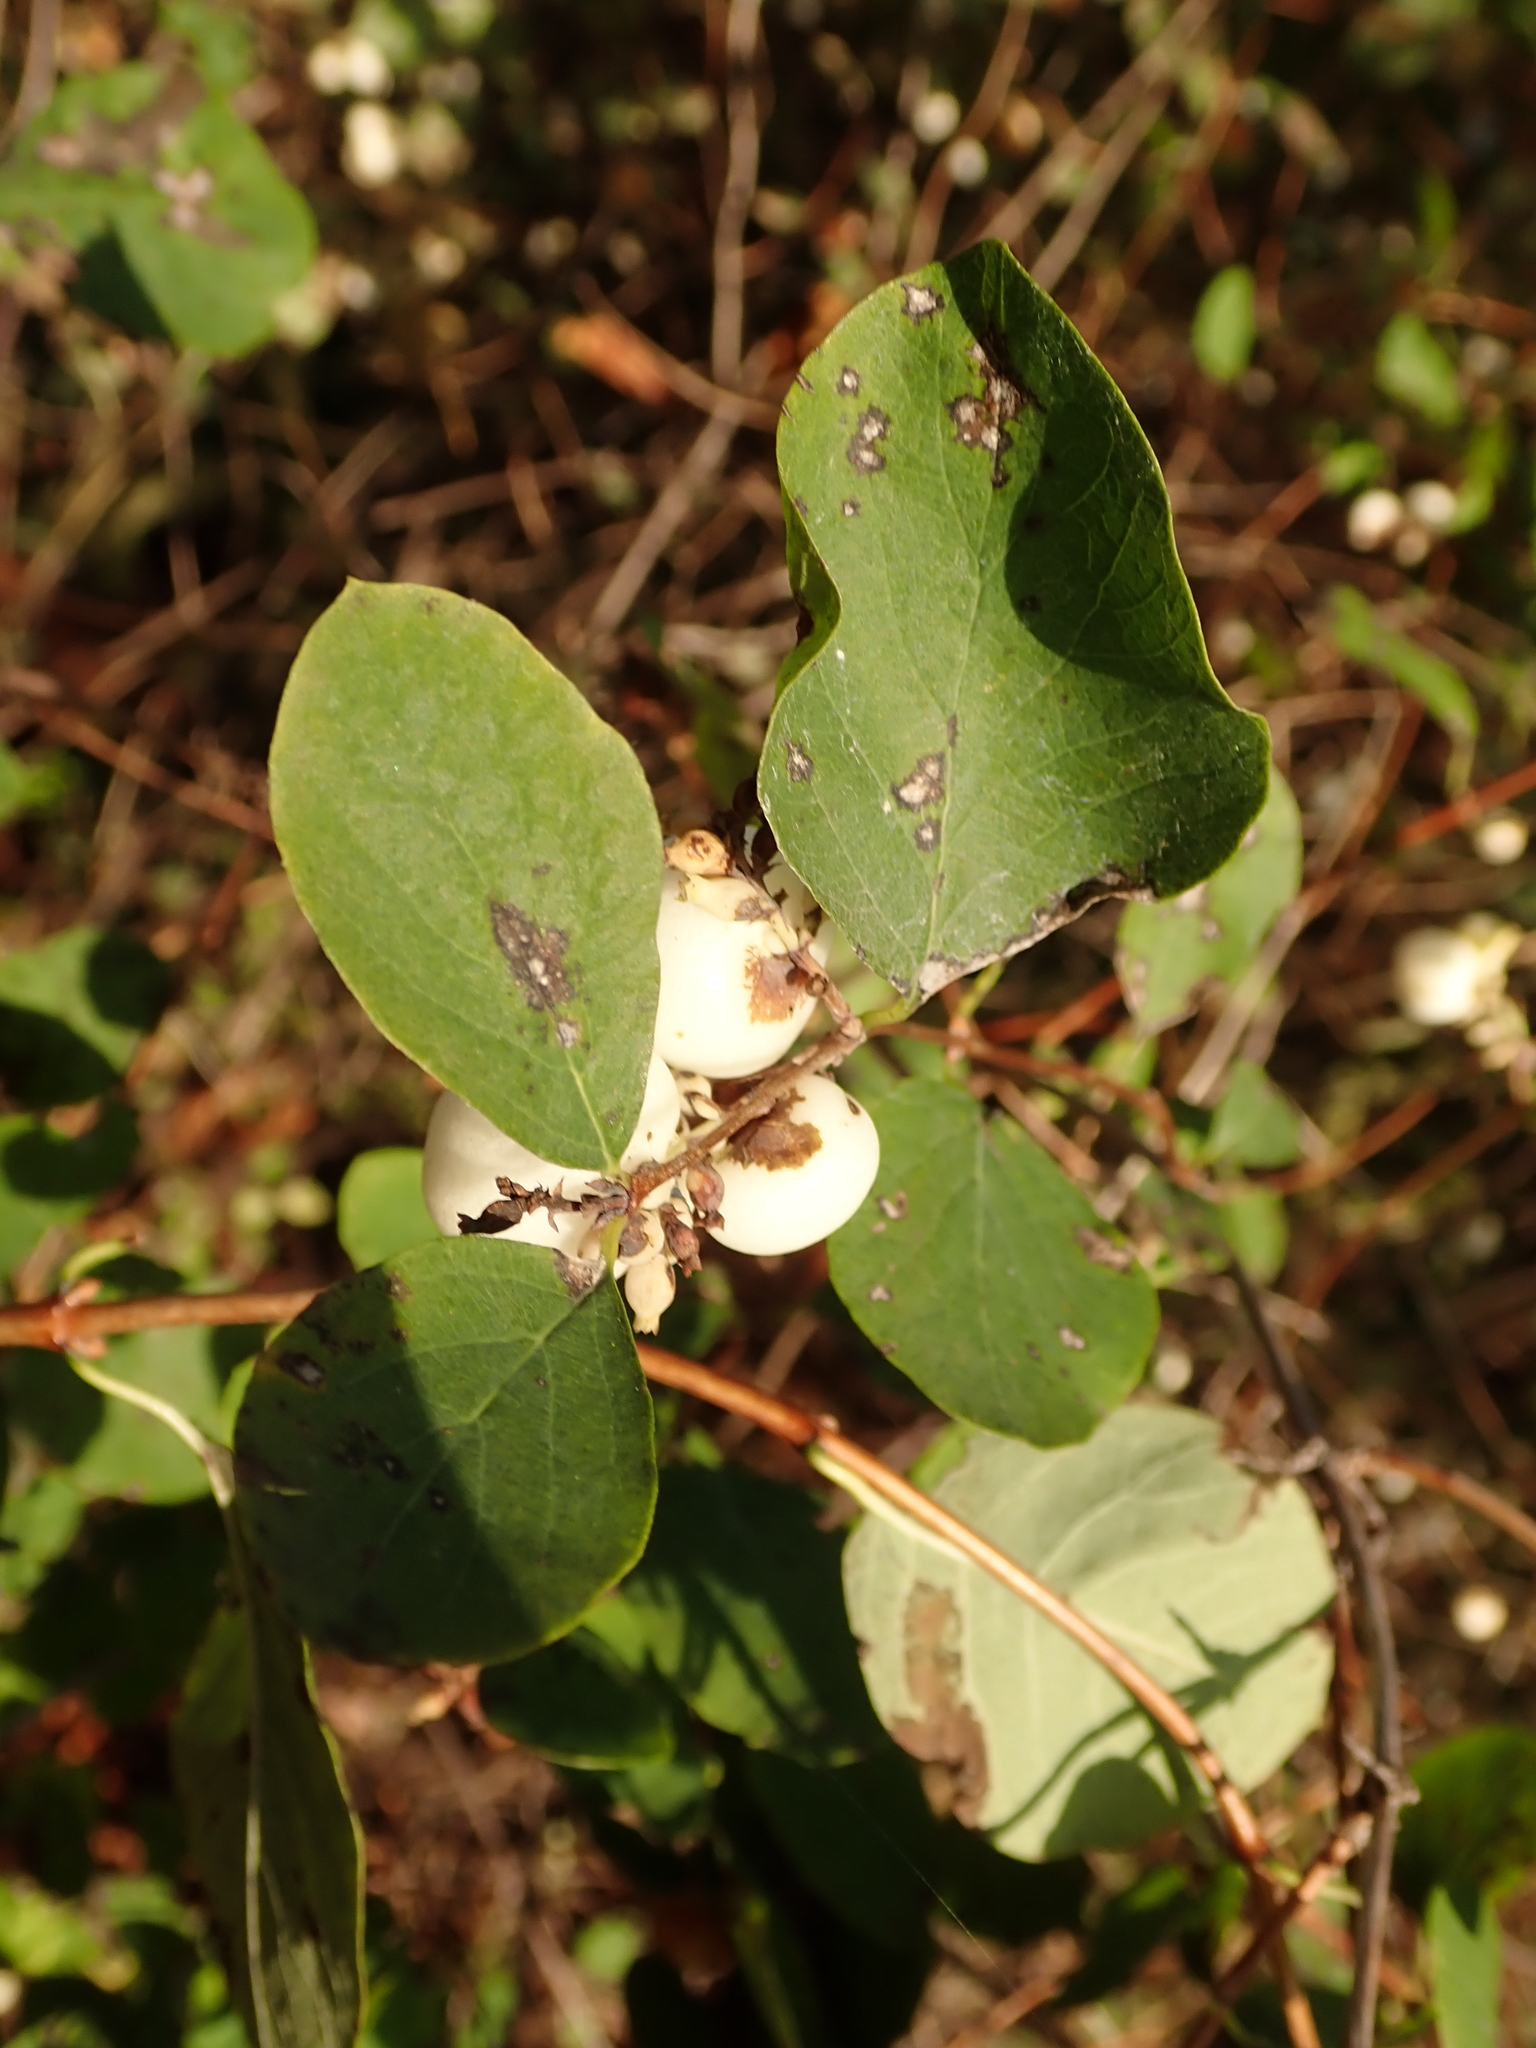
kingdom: Plantae
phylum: Tracheophyta
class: Magnoliopsida
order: Dipsacales
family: Caprifoliaceae
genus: Symphoricarpos
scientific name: Symphoricarpos albus
